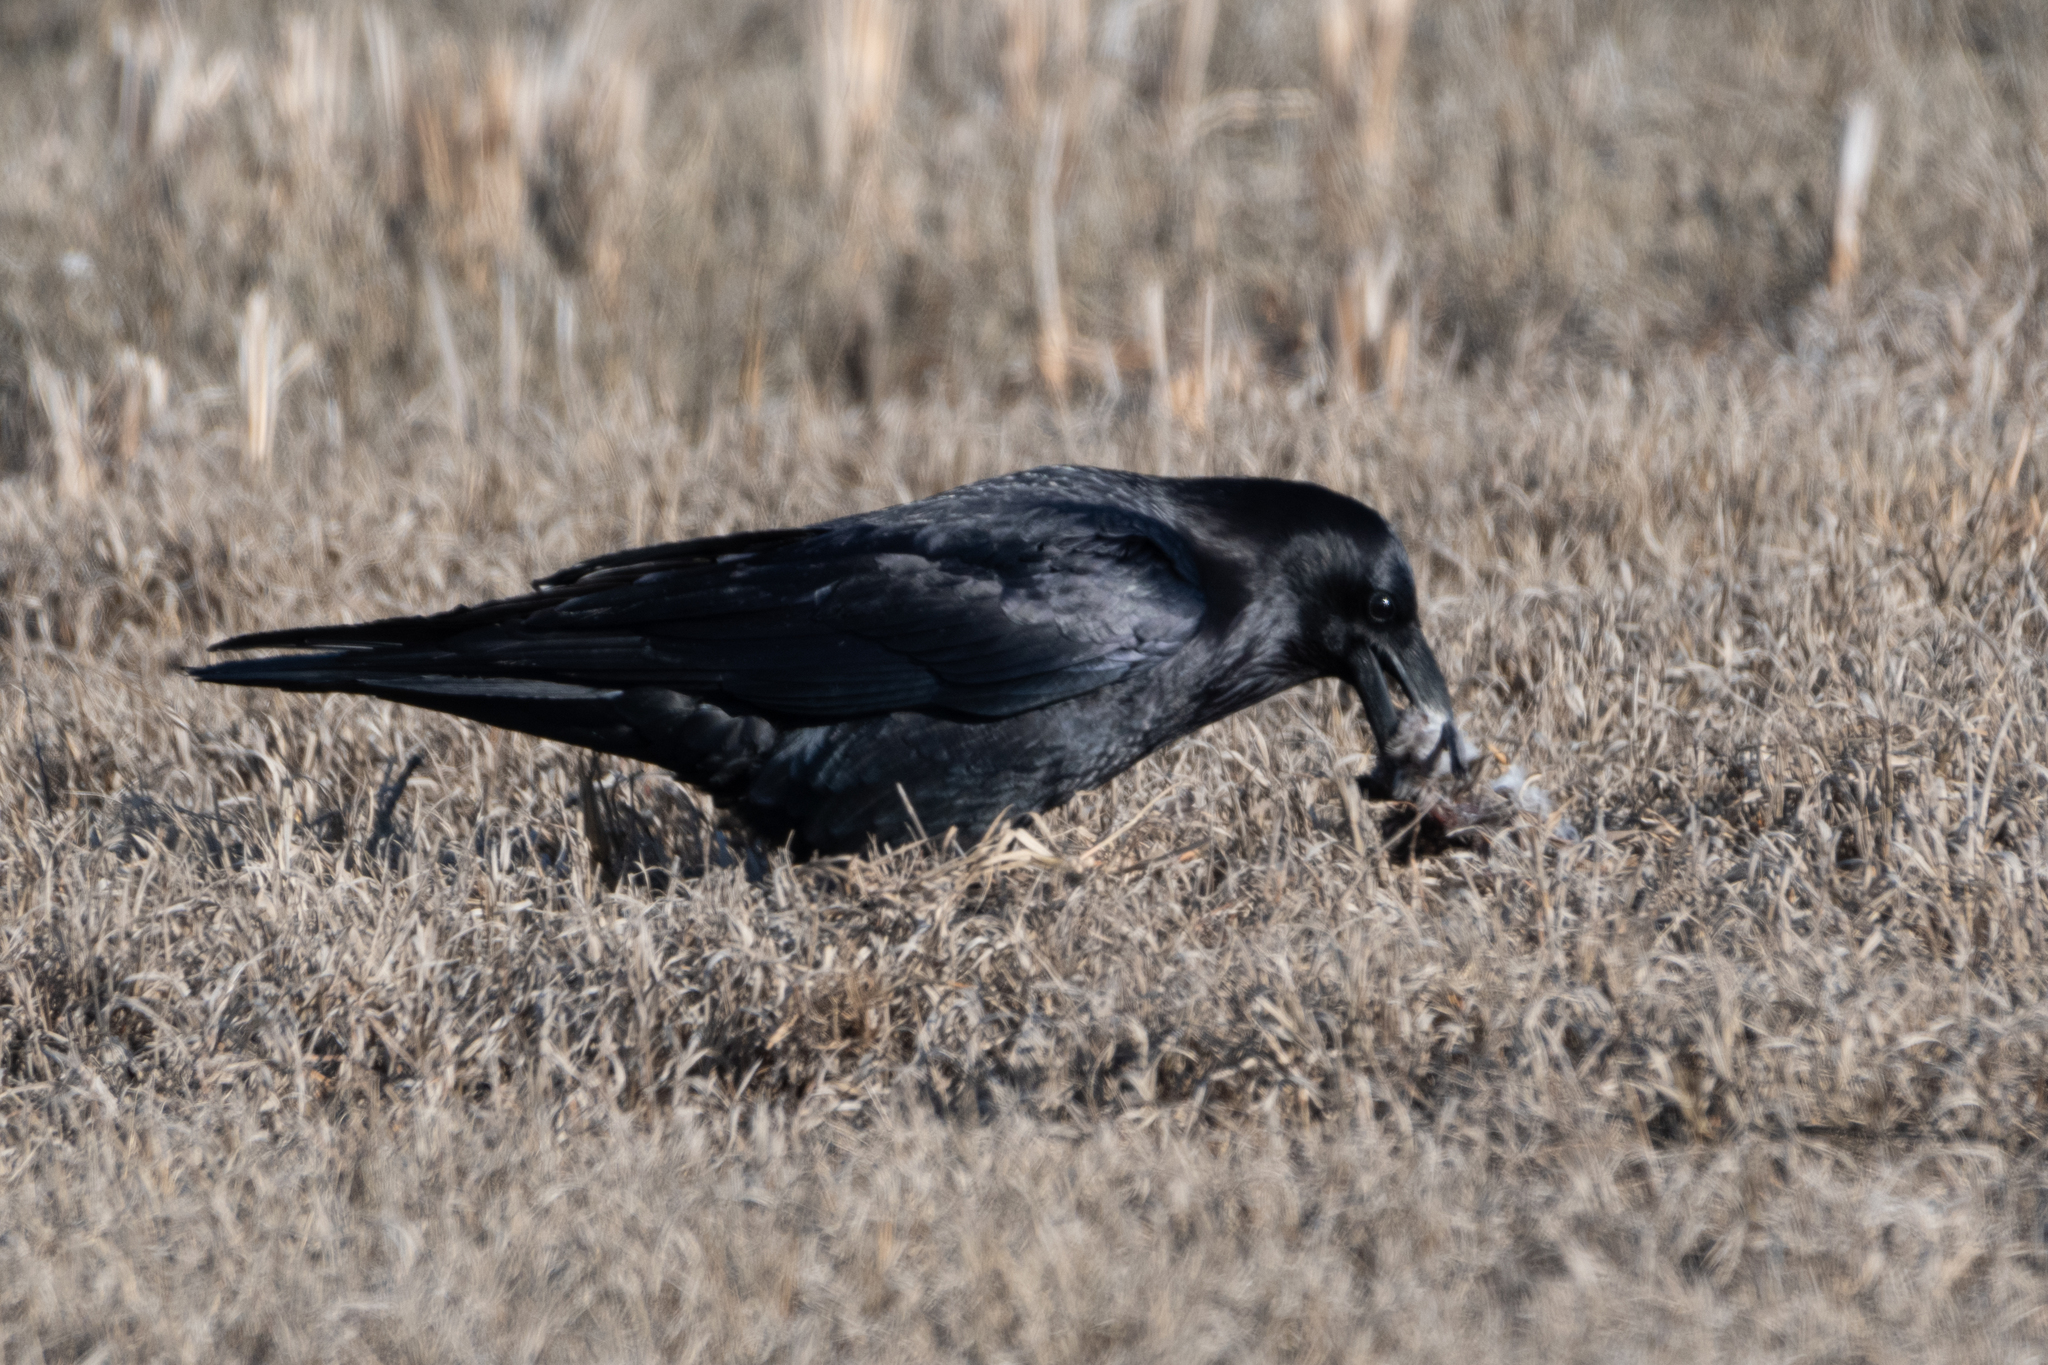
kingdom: Animalia
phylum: Chordata
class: Aves
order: Passeriformes
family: Corvidae
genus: Corvus
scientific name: Corvus corax
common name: Common raven
